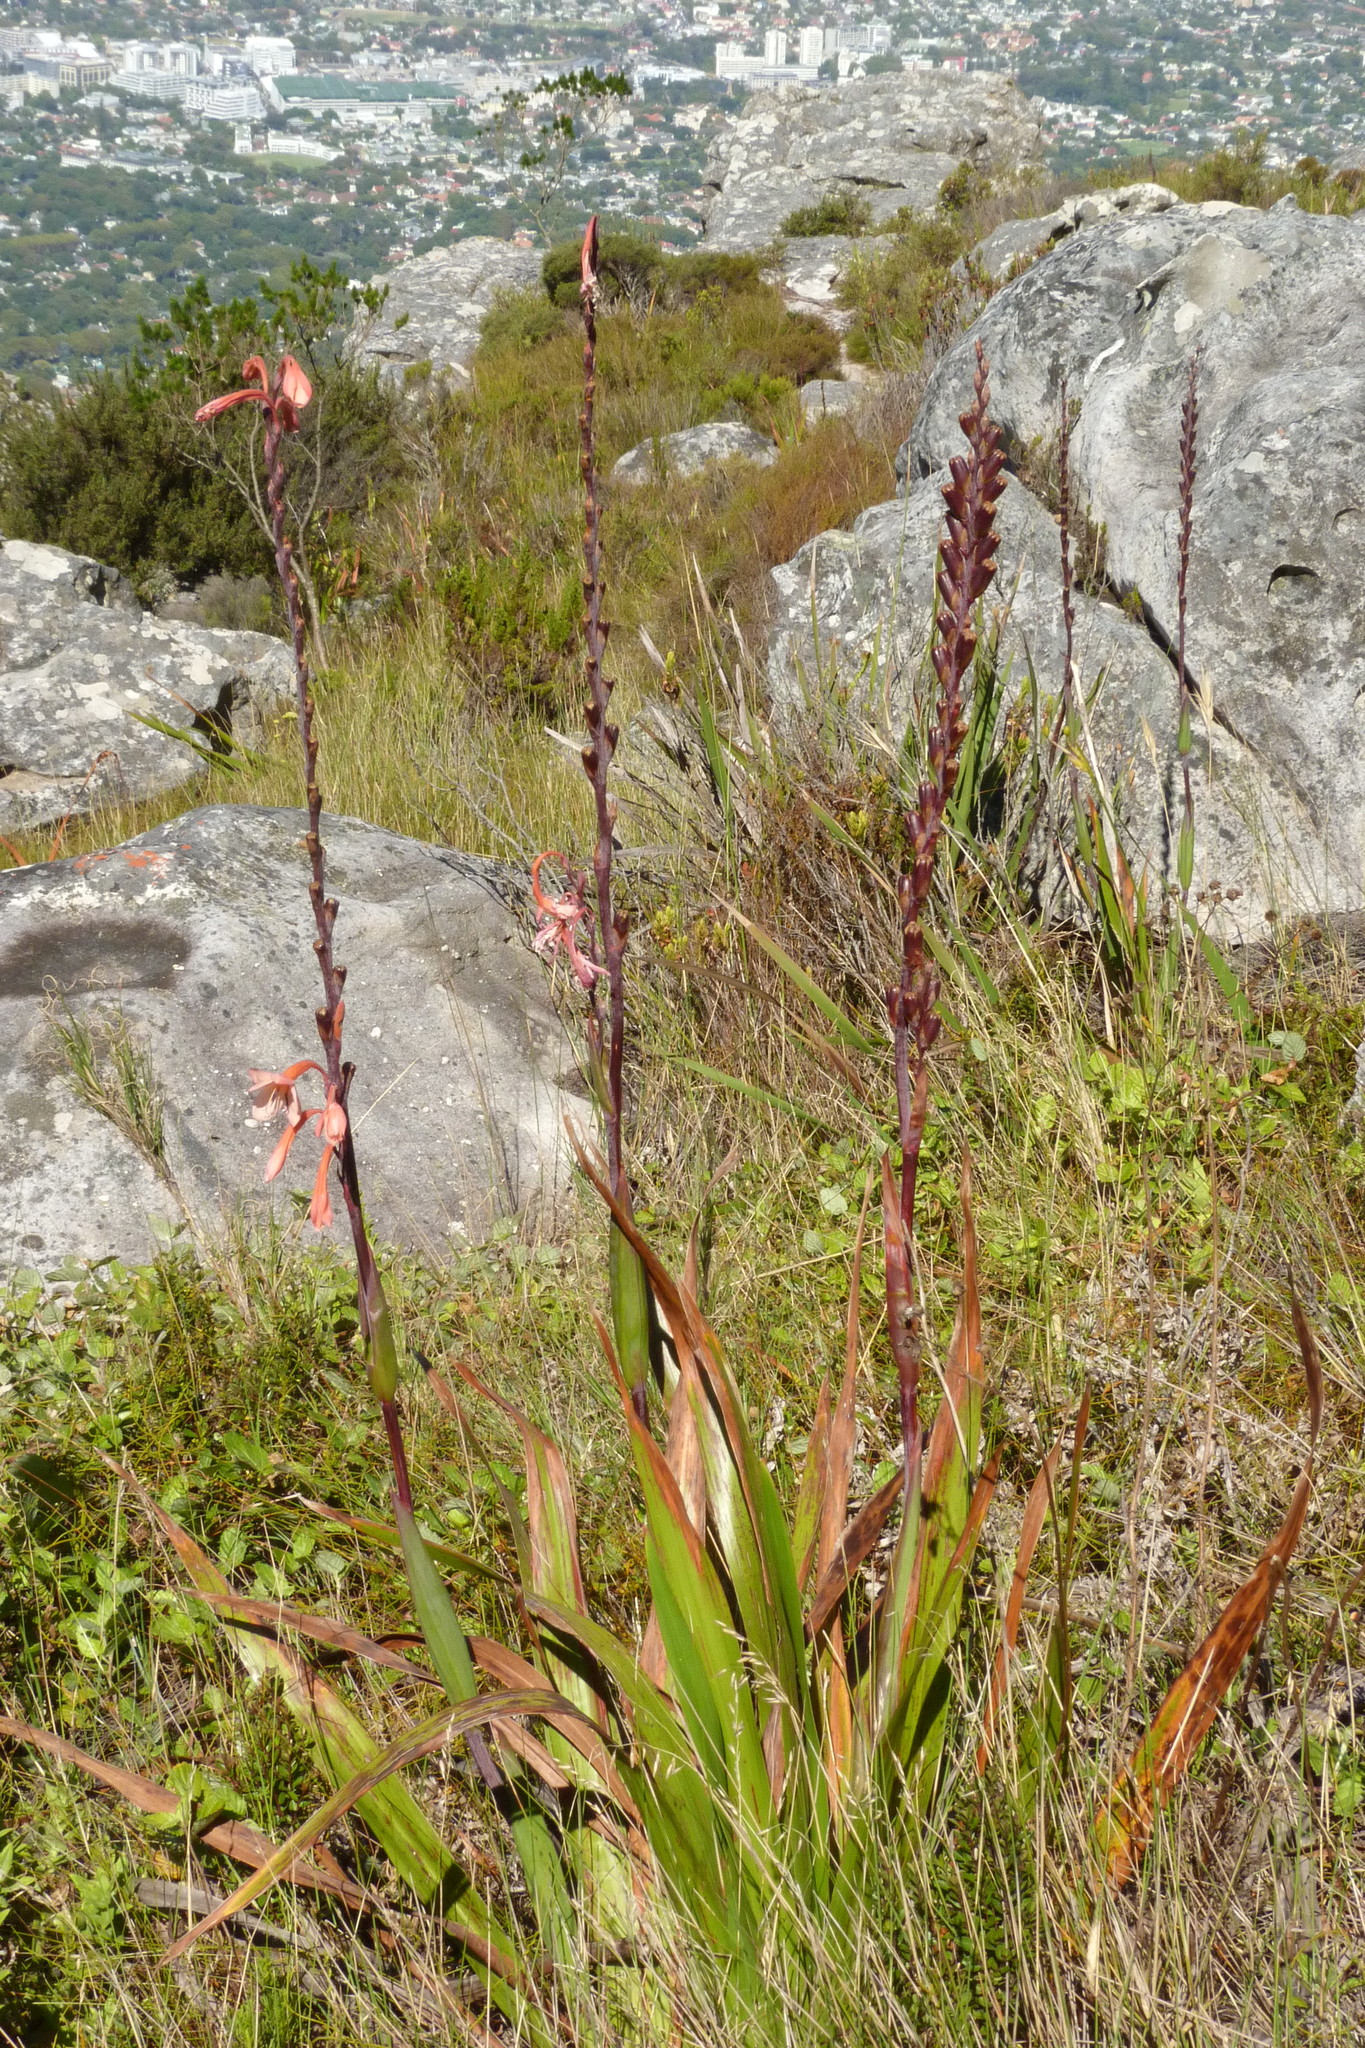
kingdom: Plantae
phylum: Tracheophyta
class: Liliopsida
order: Asparagales
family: Iridaceae
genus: Watsonia
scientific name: Watsonia tabularis
